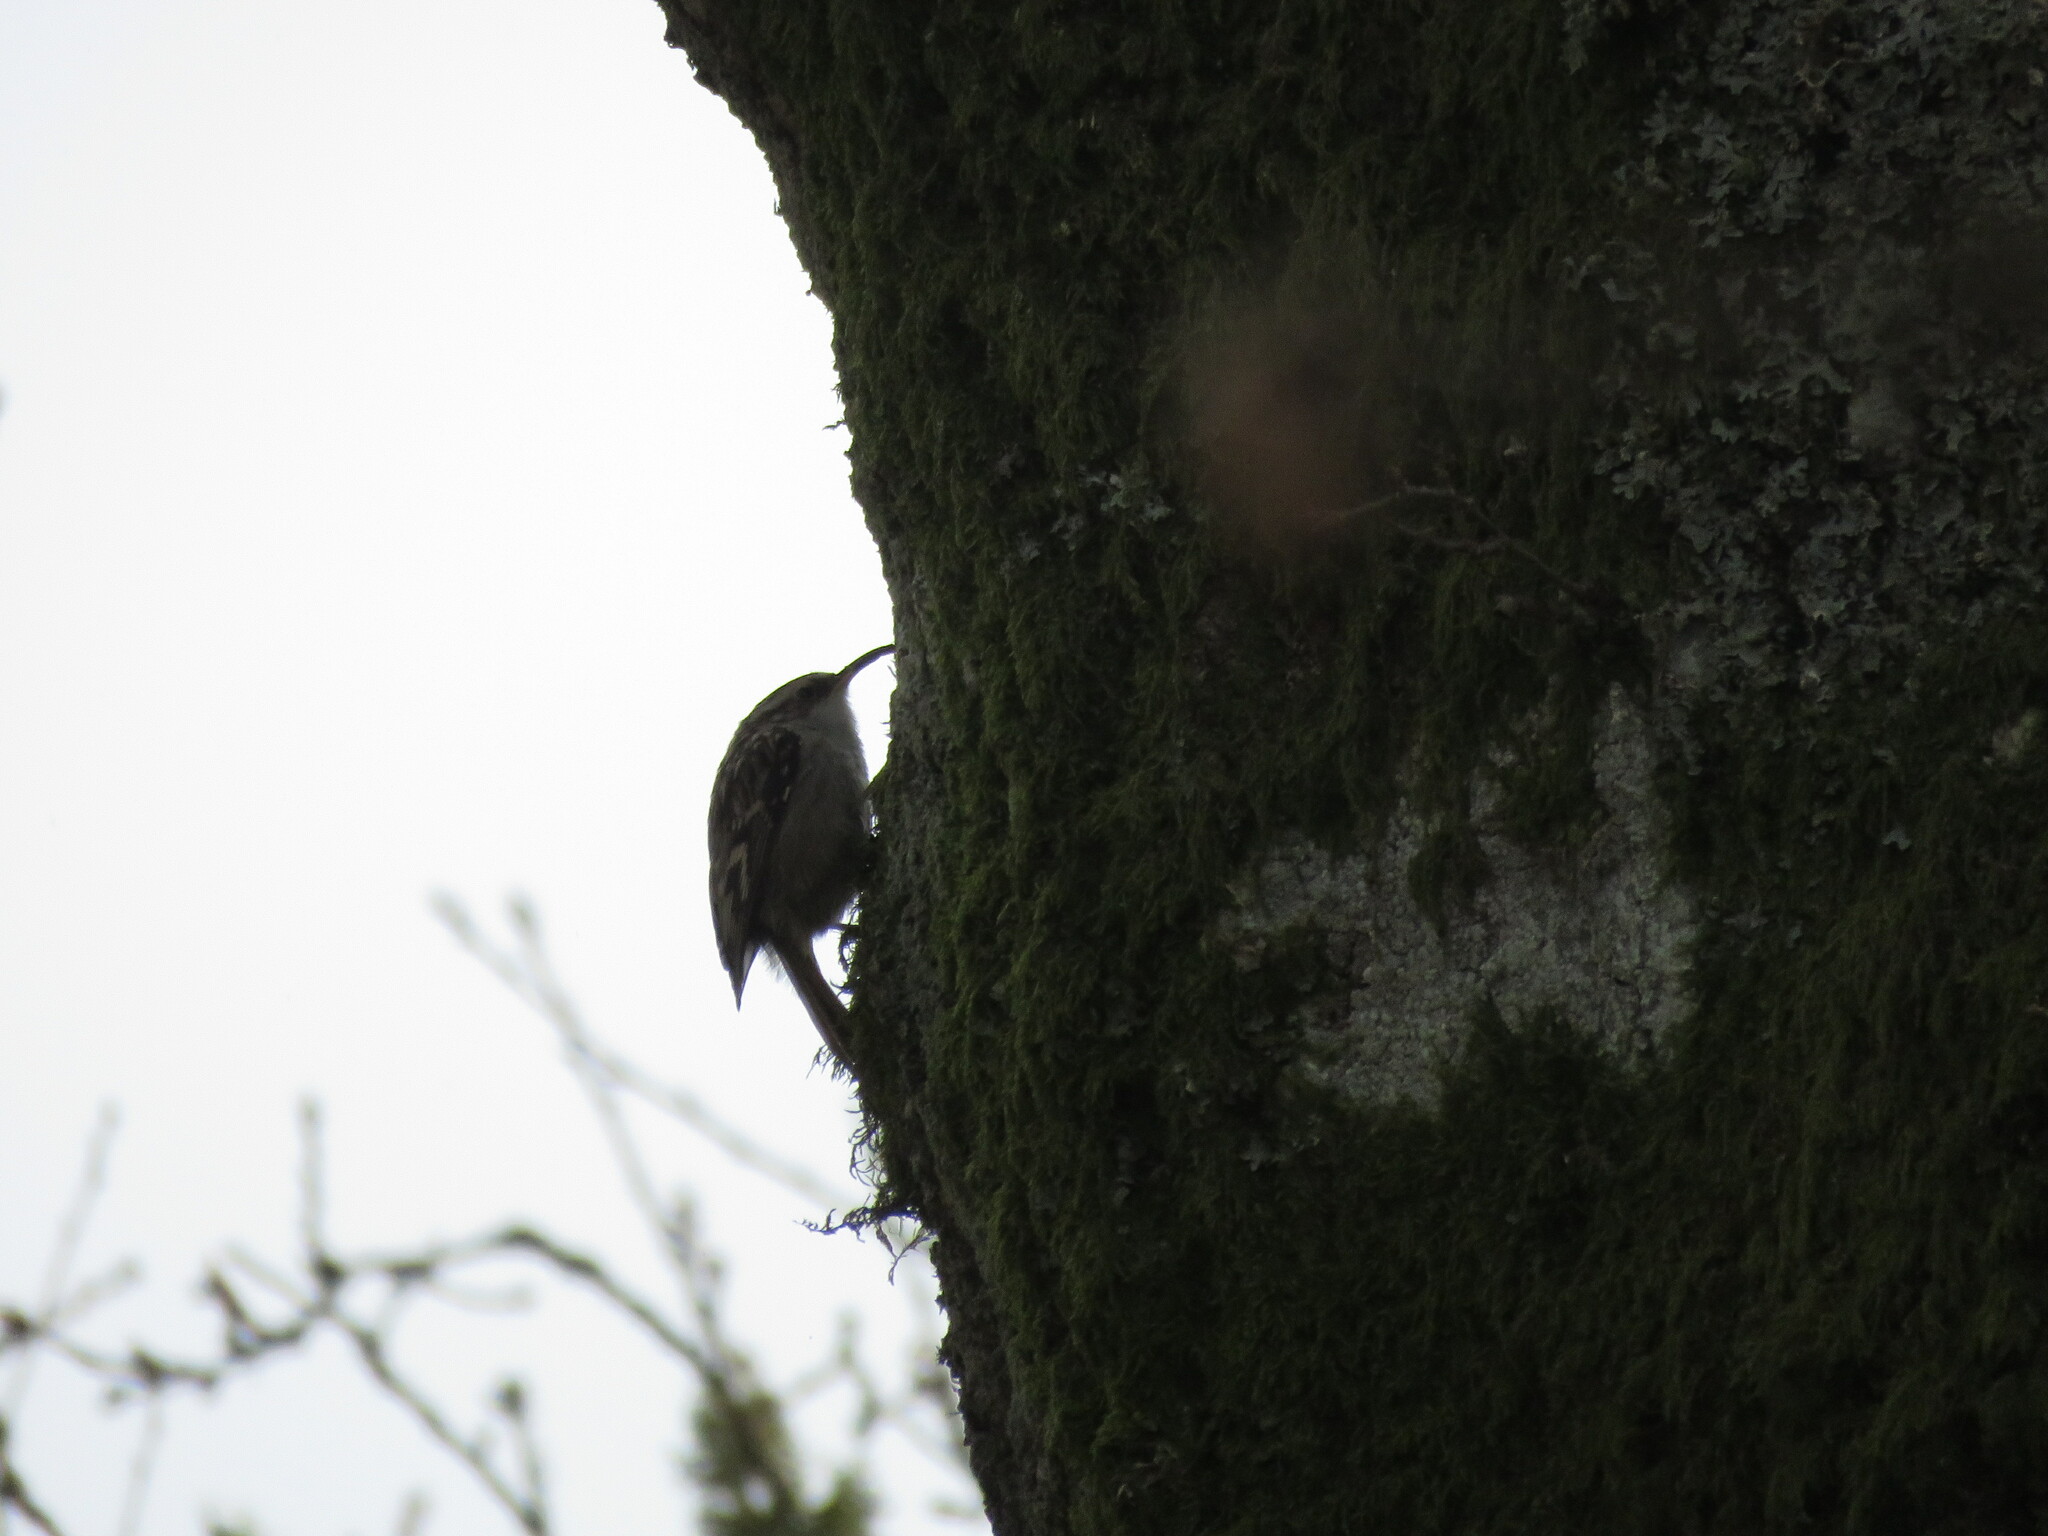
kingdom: Animalia
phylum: Chordata
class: Aves
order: Passeriformes
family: Certhiidae
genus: Certhia
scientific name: Certhia brachydactyla
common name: Short-toed treecreeper
